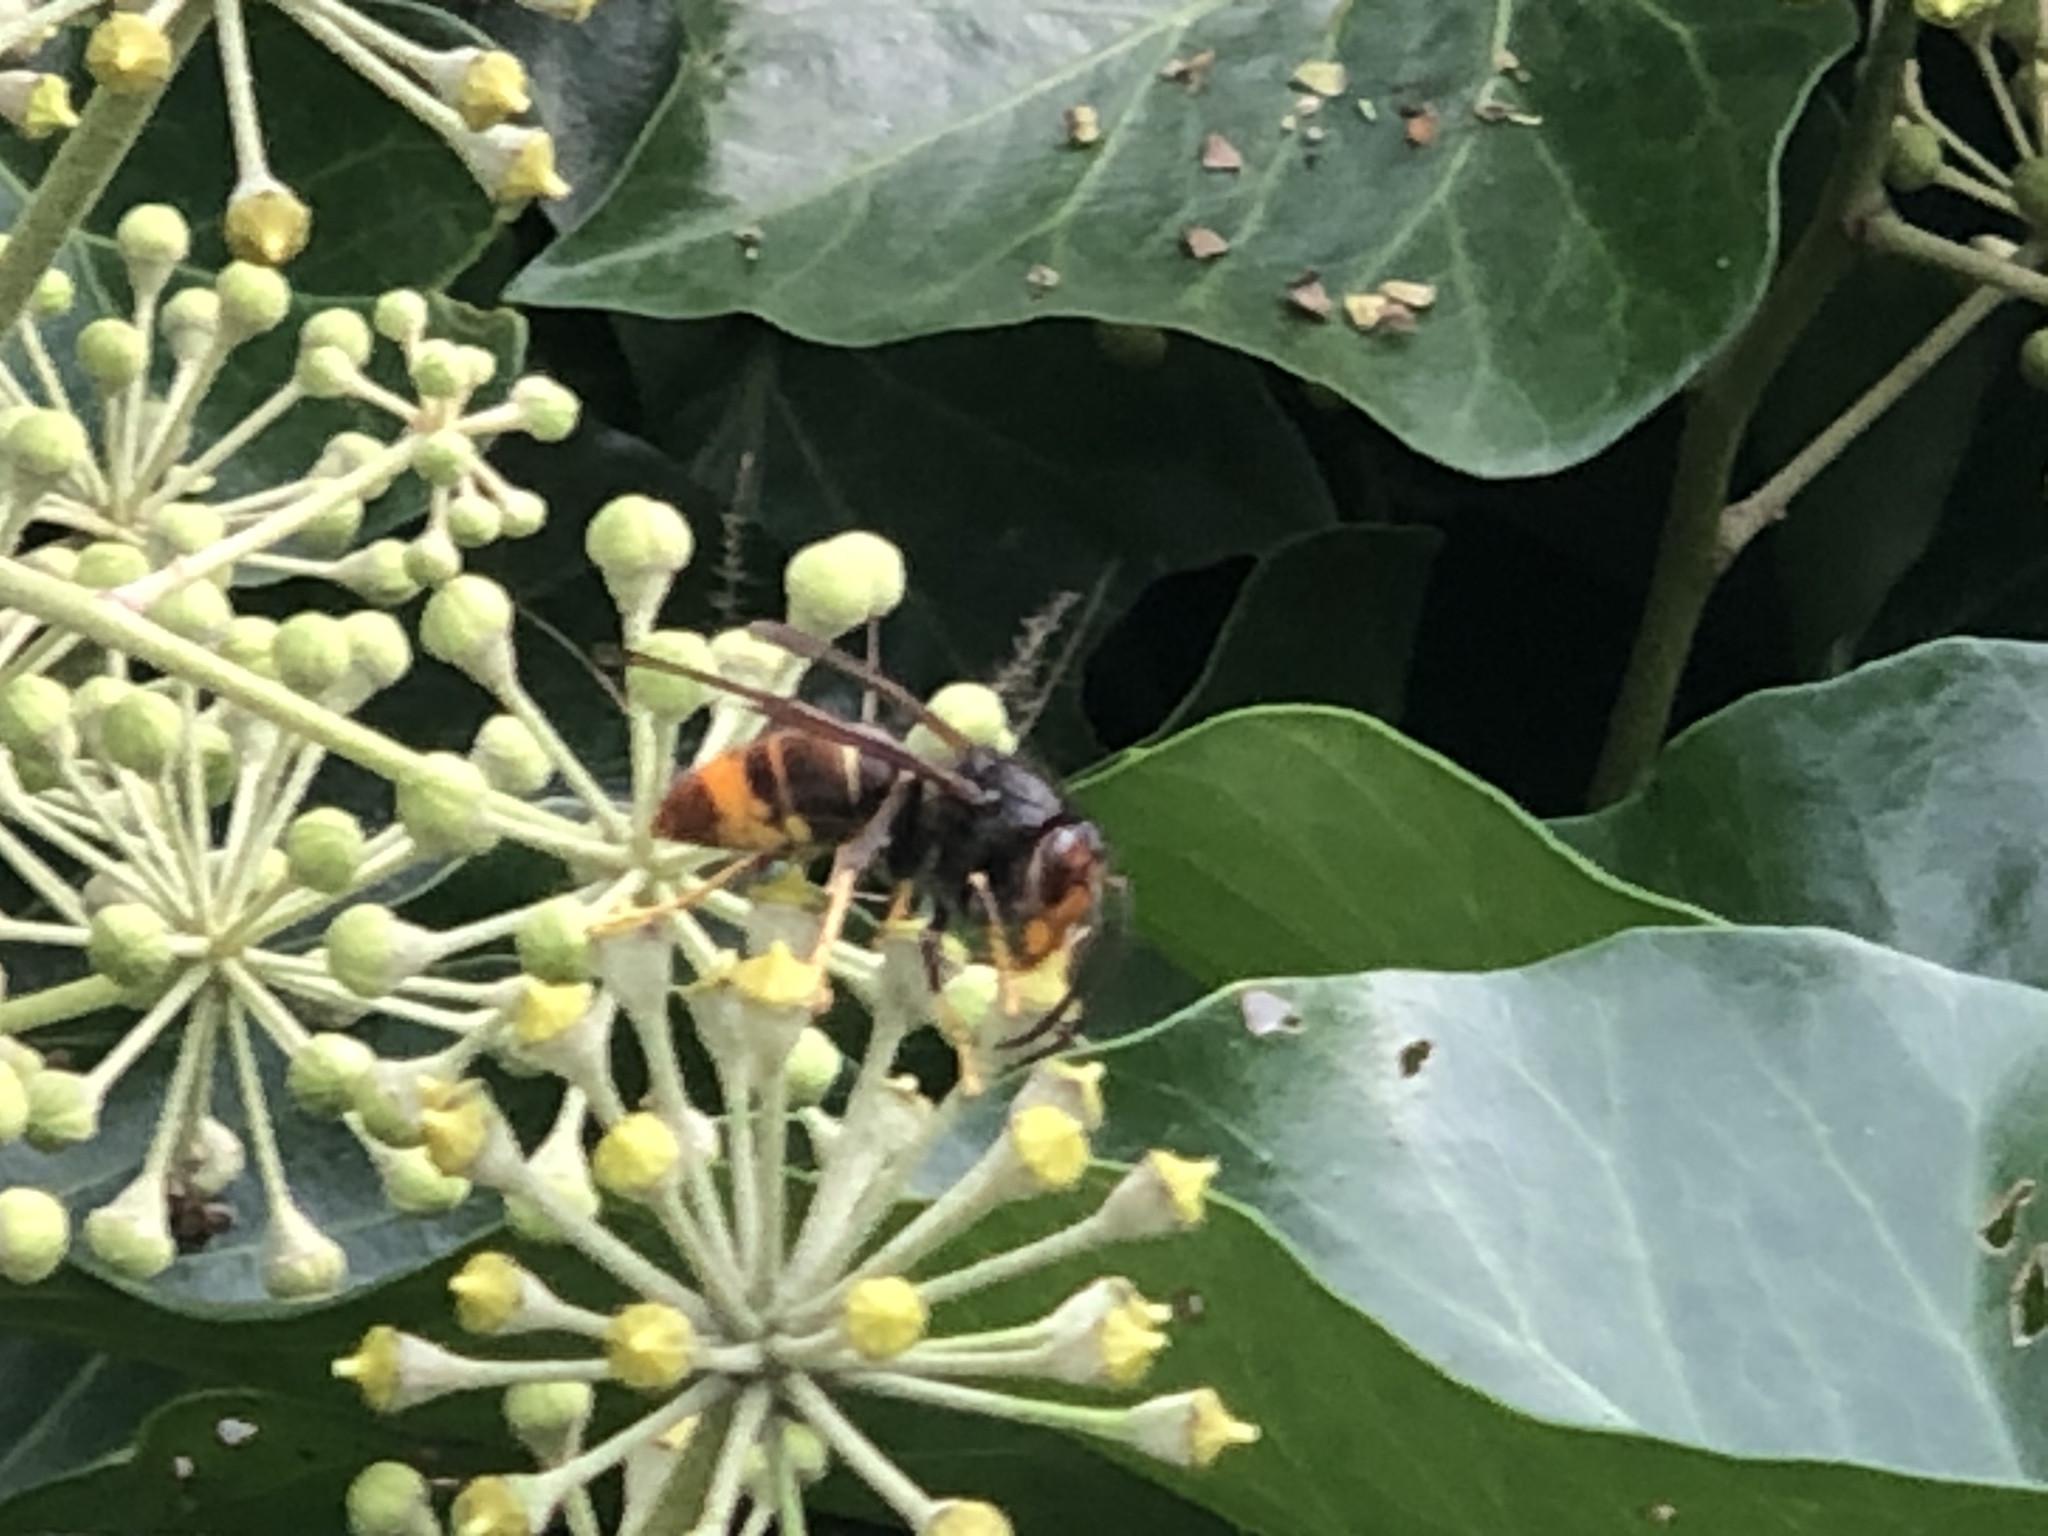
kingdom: Animalia
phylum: Arthropoda
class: Insecta
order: Hymenoptera
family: Vespidae
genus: Vespa
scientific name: Vespa velutina
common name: Asian hornet
